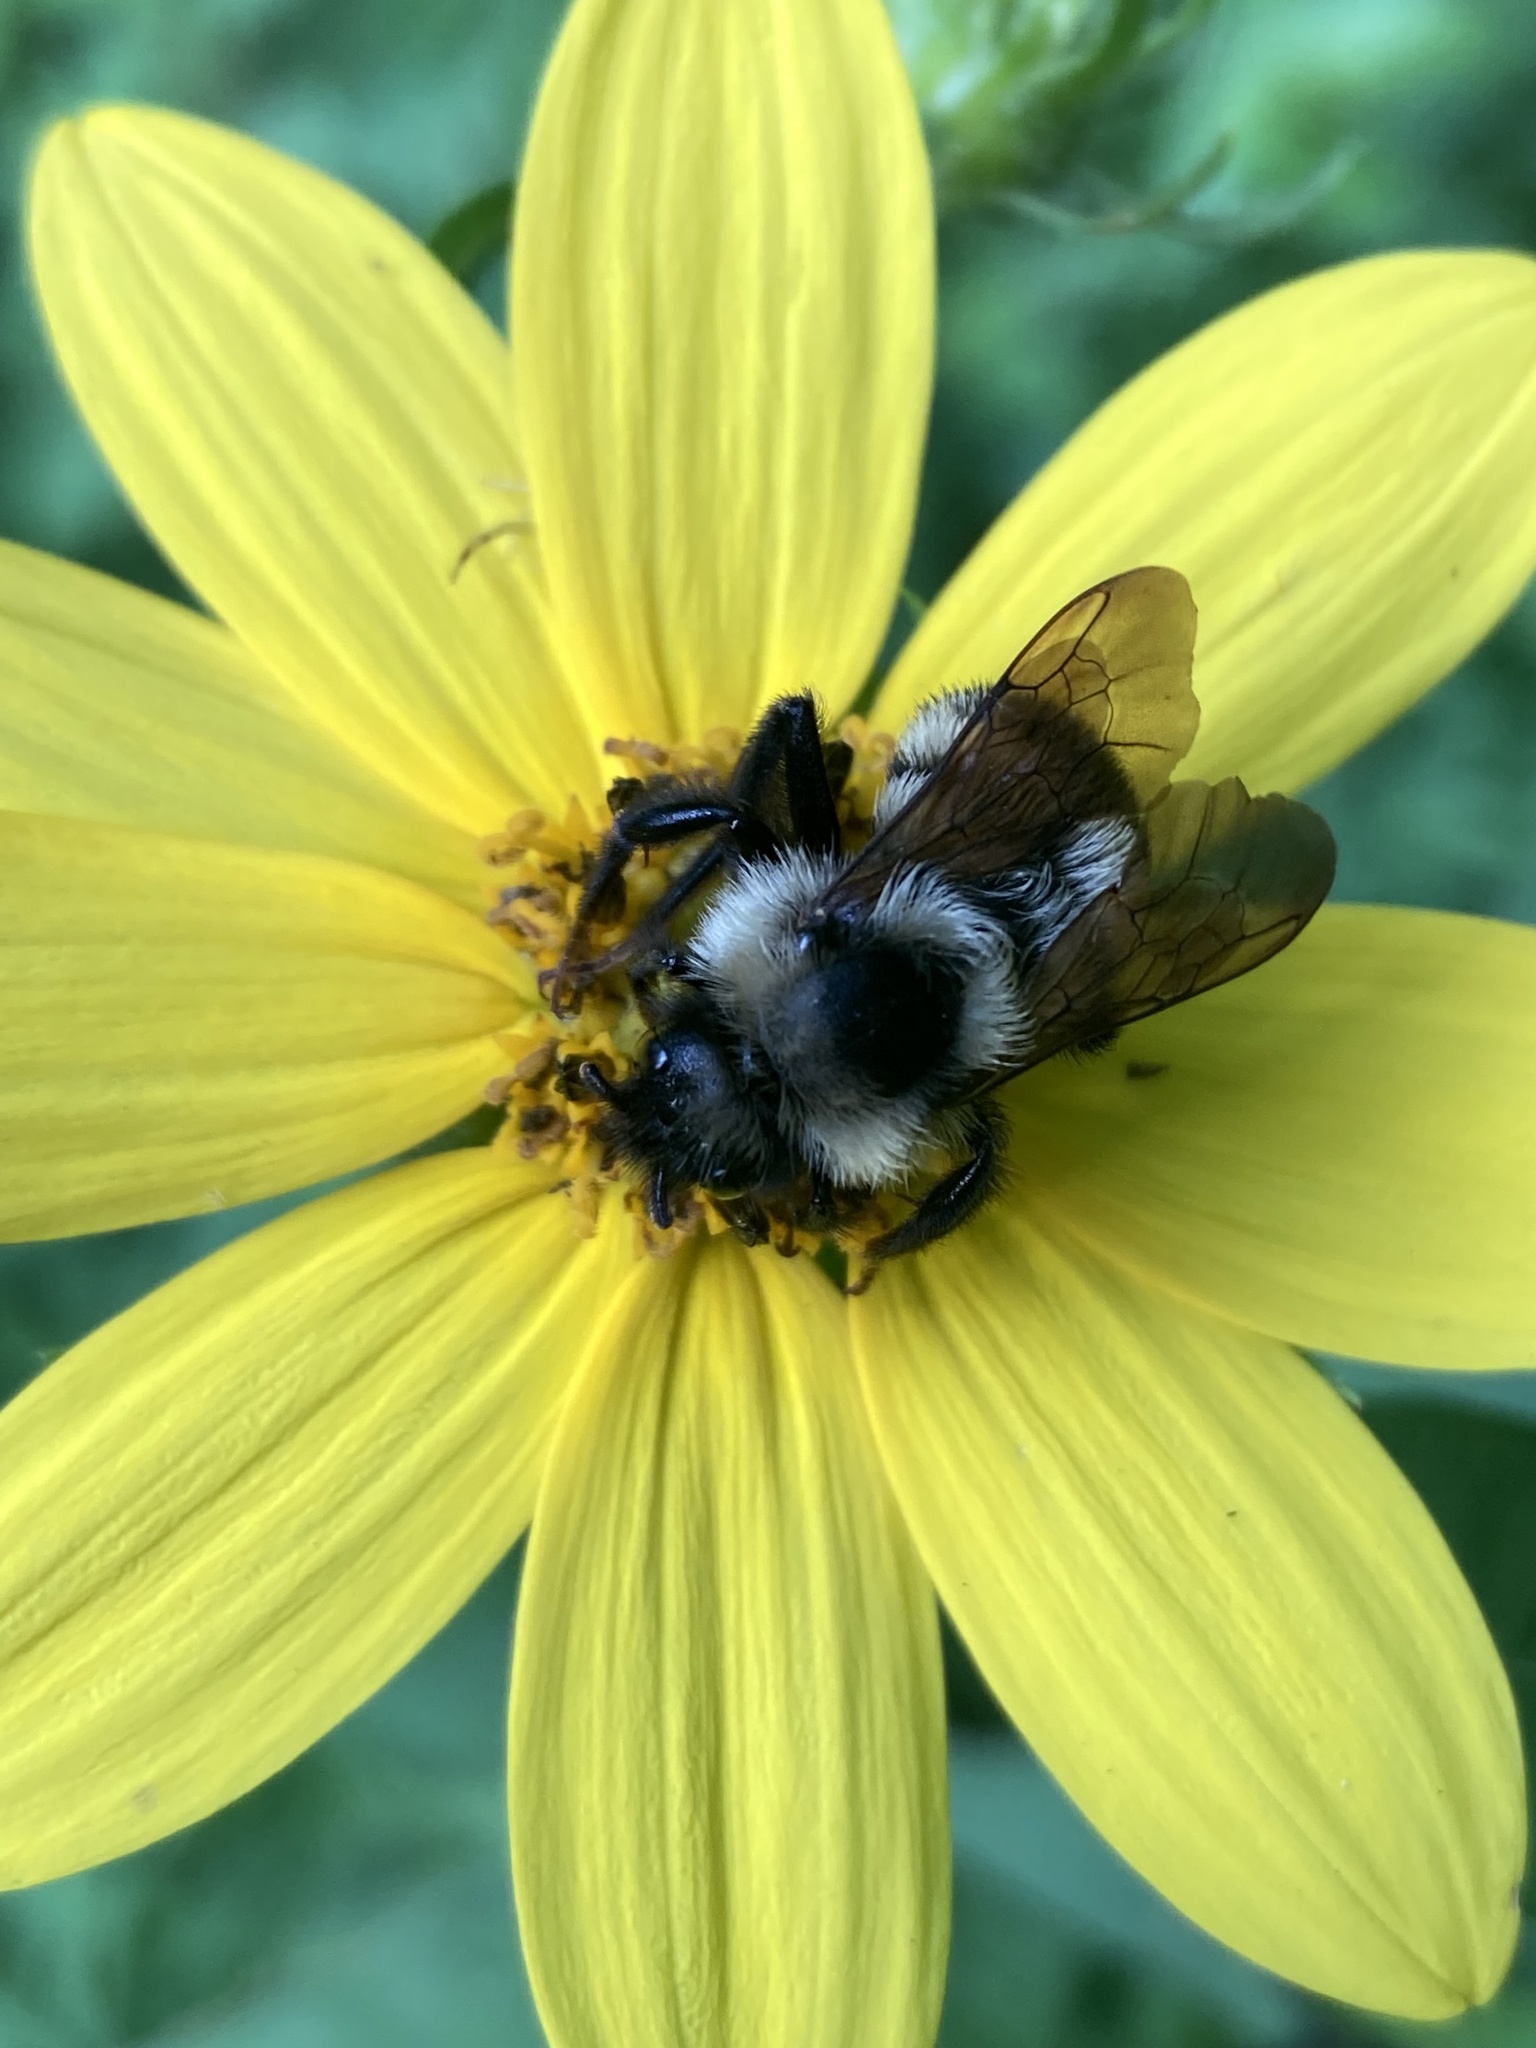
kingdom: Animalia
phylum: Arthropoda
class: Insecta
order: Hymenoptera
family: Apidae
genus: Bombus
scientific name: Bombus citrinus
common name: Lemon cuckoo bumble bee
